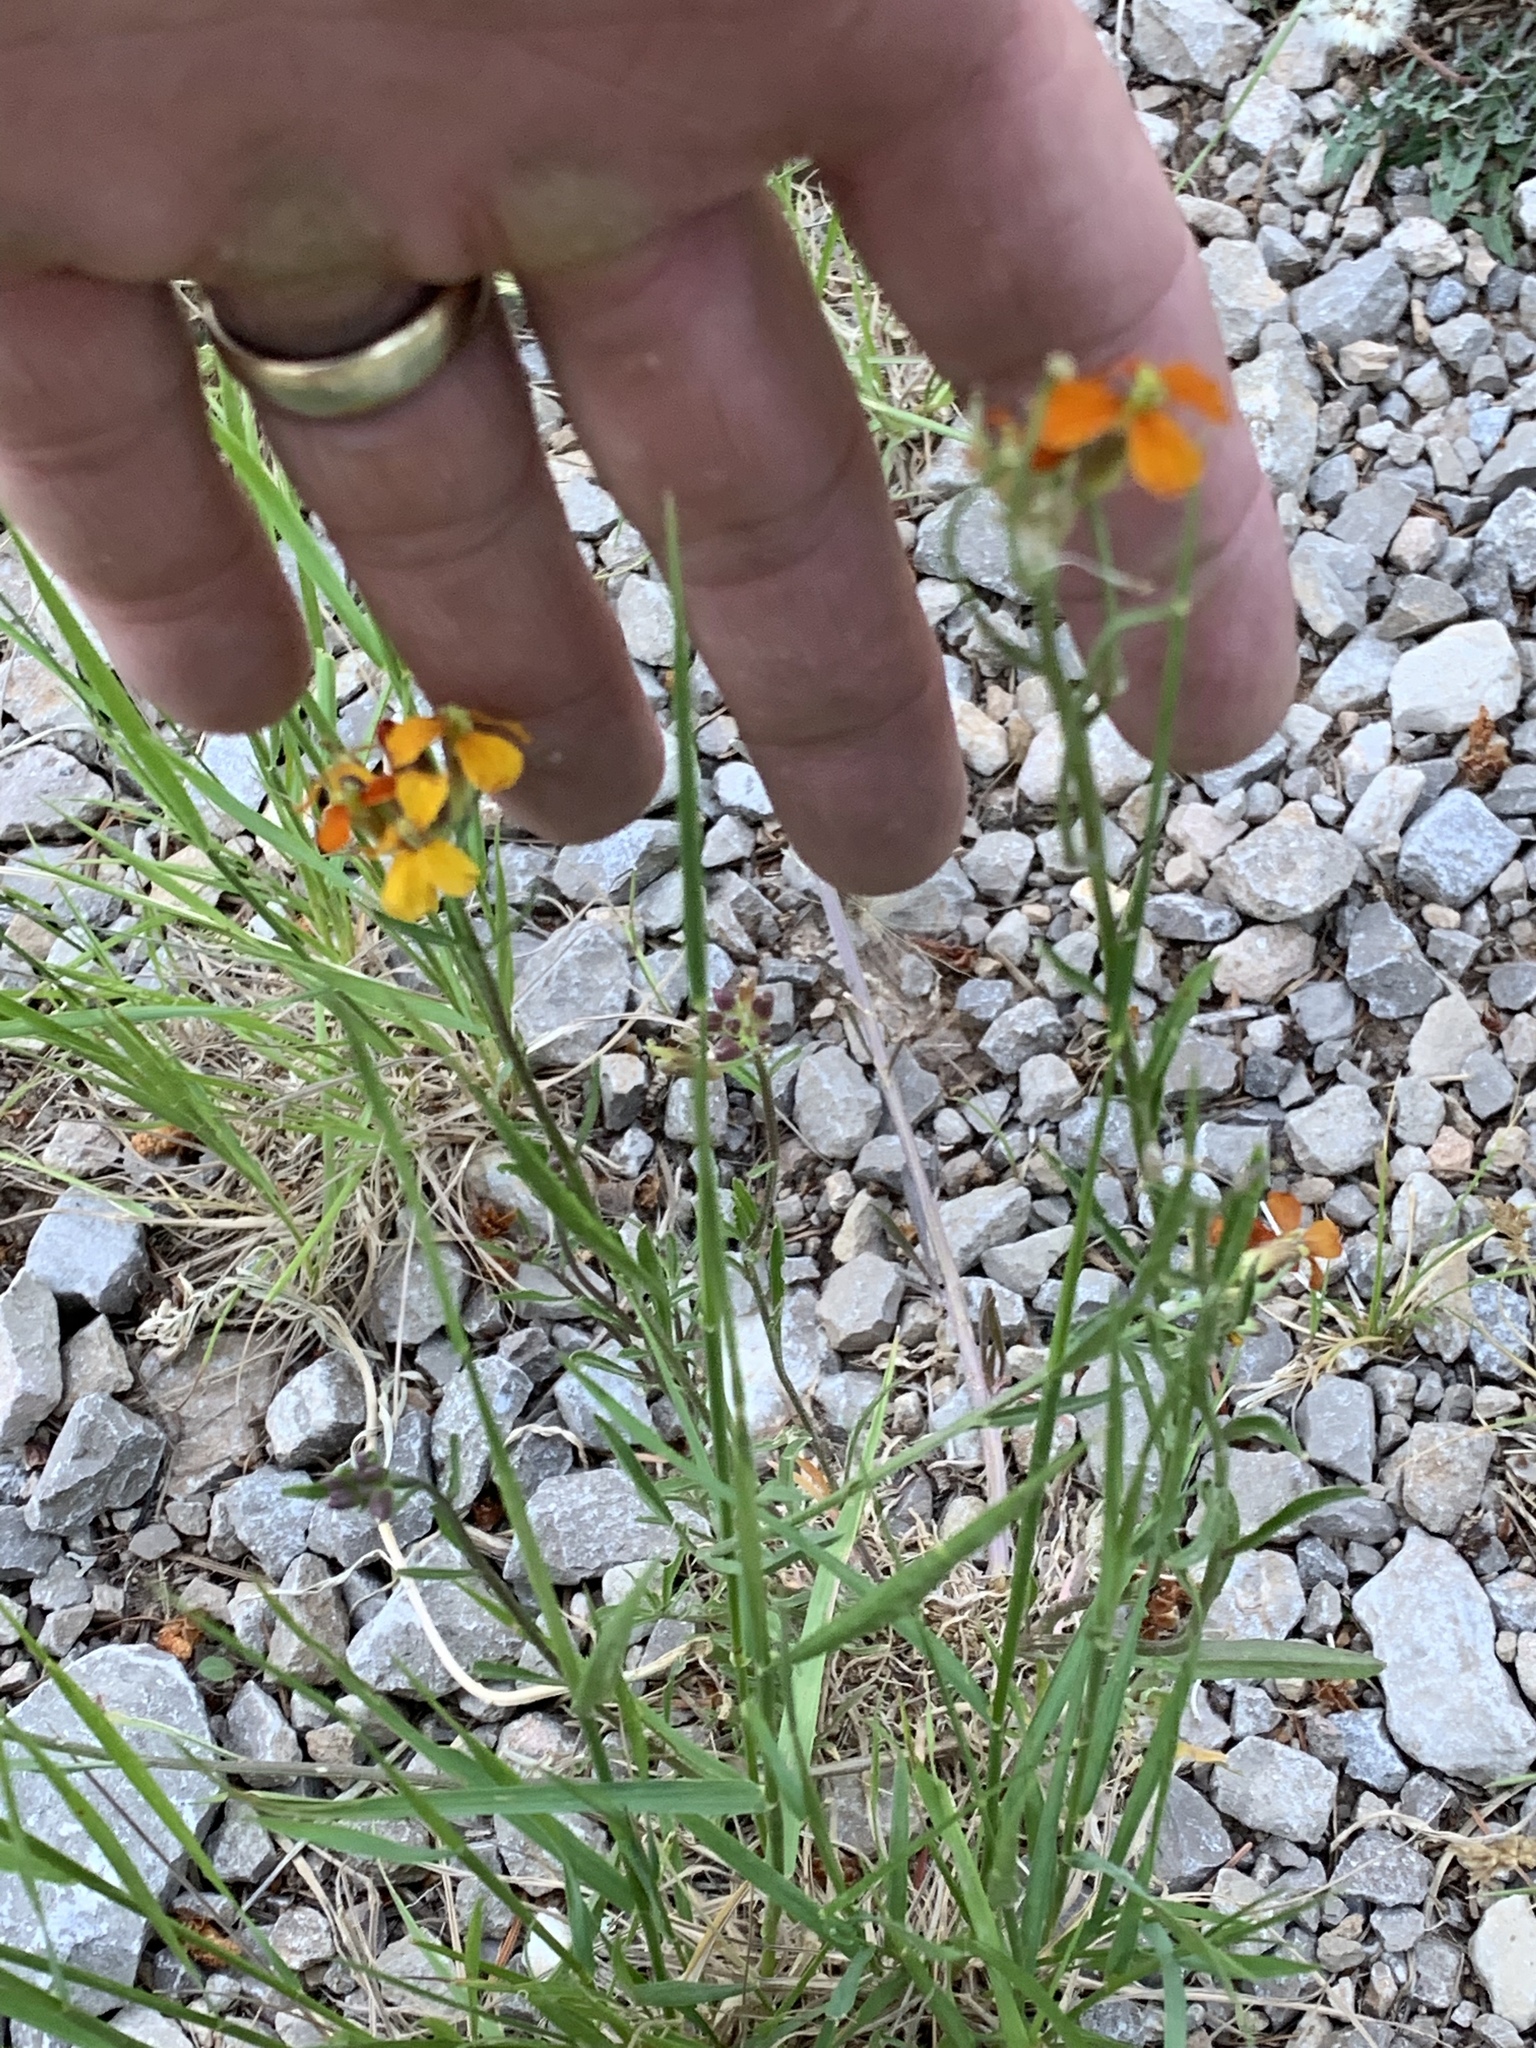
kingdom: Plantae
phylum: Tracheophyta
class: Magnoliopsida
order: Brassicales
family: Brassicaceae
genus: Erysimum
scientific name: Erysimum capitatum
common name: Western wallflower
